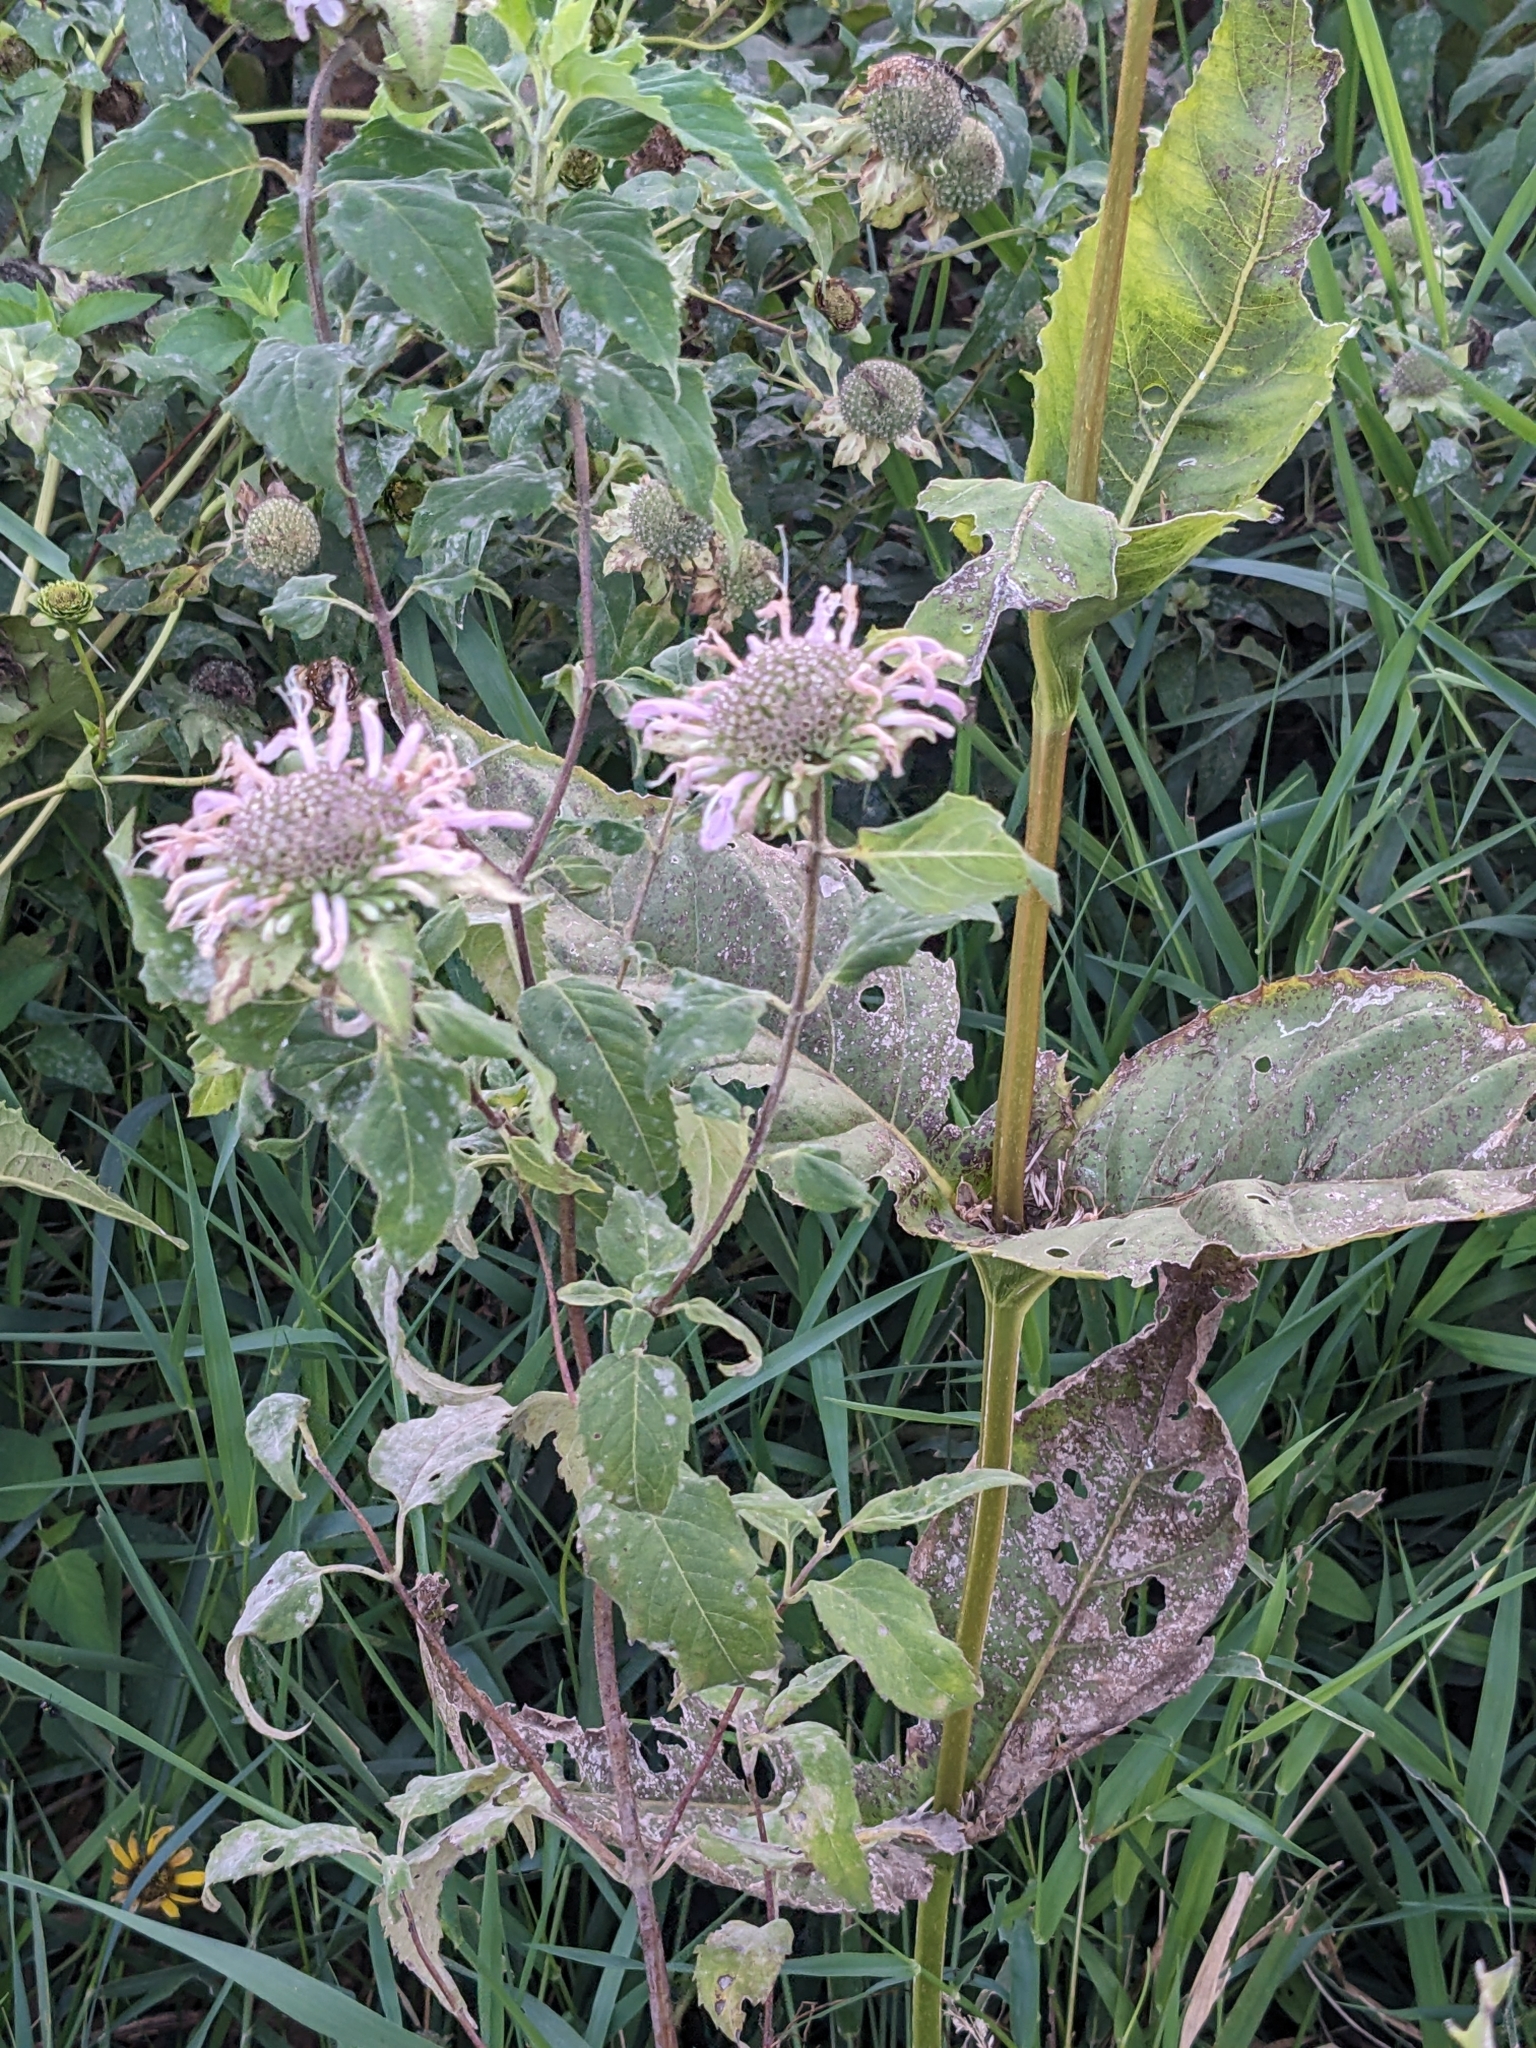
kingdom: Plantae
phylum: Tracheophyta
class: Magnoliopsida
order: Lamiales
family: Lamiaceae
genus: Monarda
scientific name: Monarda fistulosa
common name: Purple beebalm
